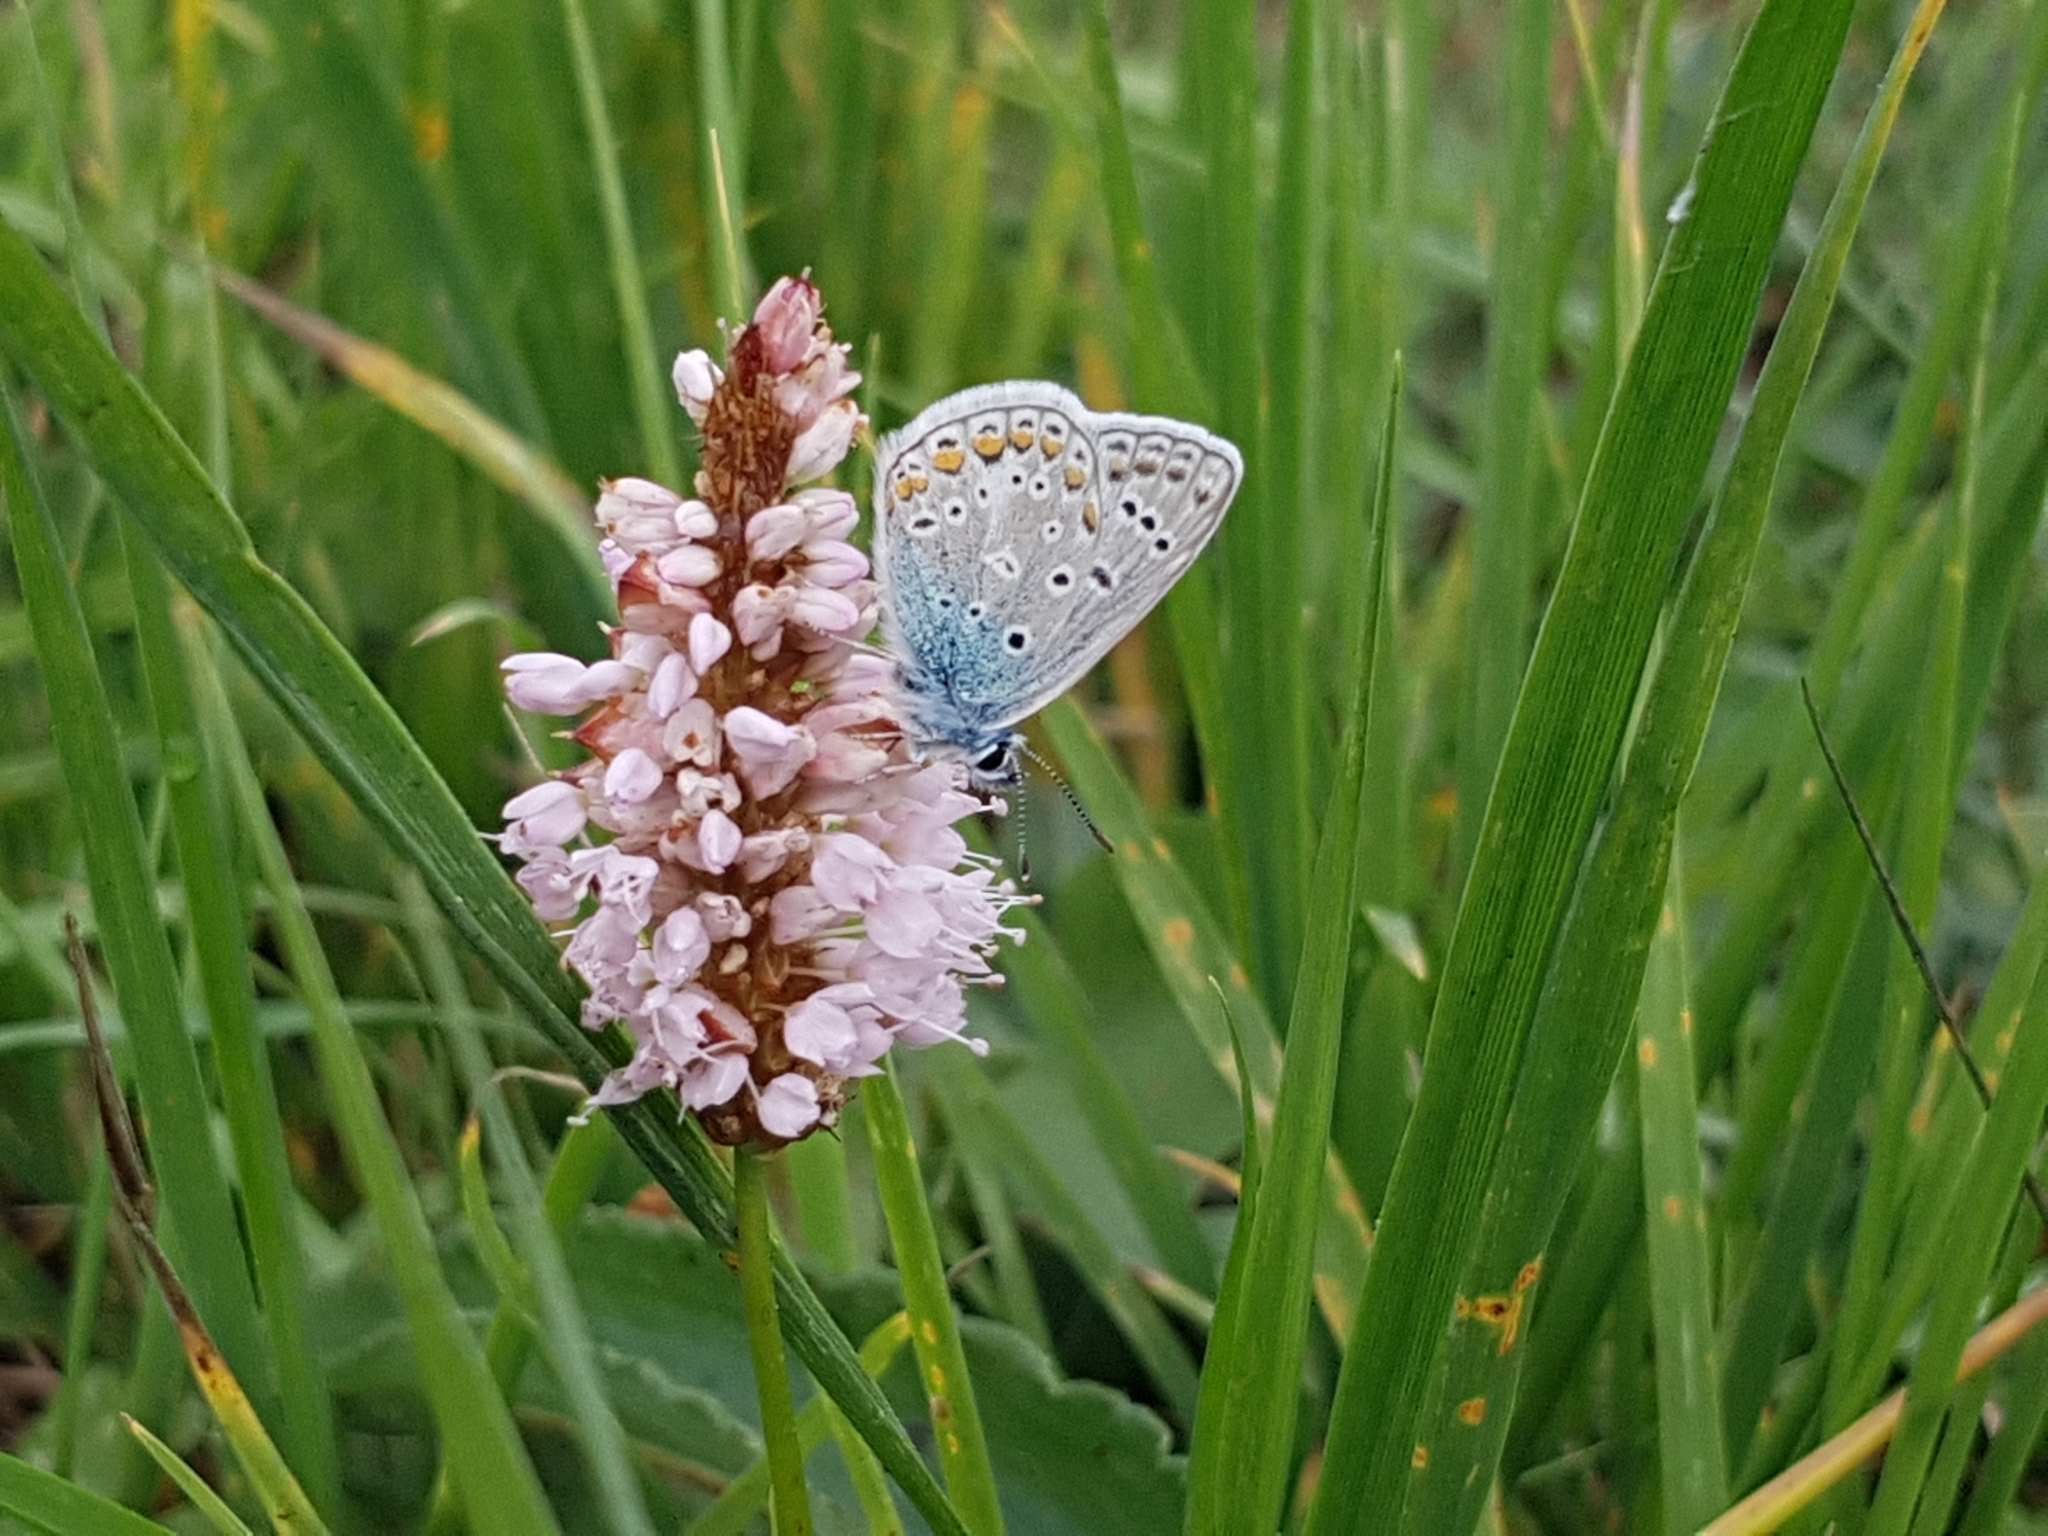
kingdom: Plantae
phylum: Tracheophyta
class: Magnoliopsida
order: Caryophyllales
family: Polygonaceae
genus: Bistorta
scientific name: Bistorta officinalis
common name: Common bistort
